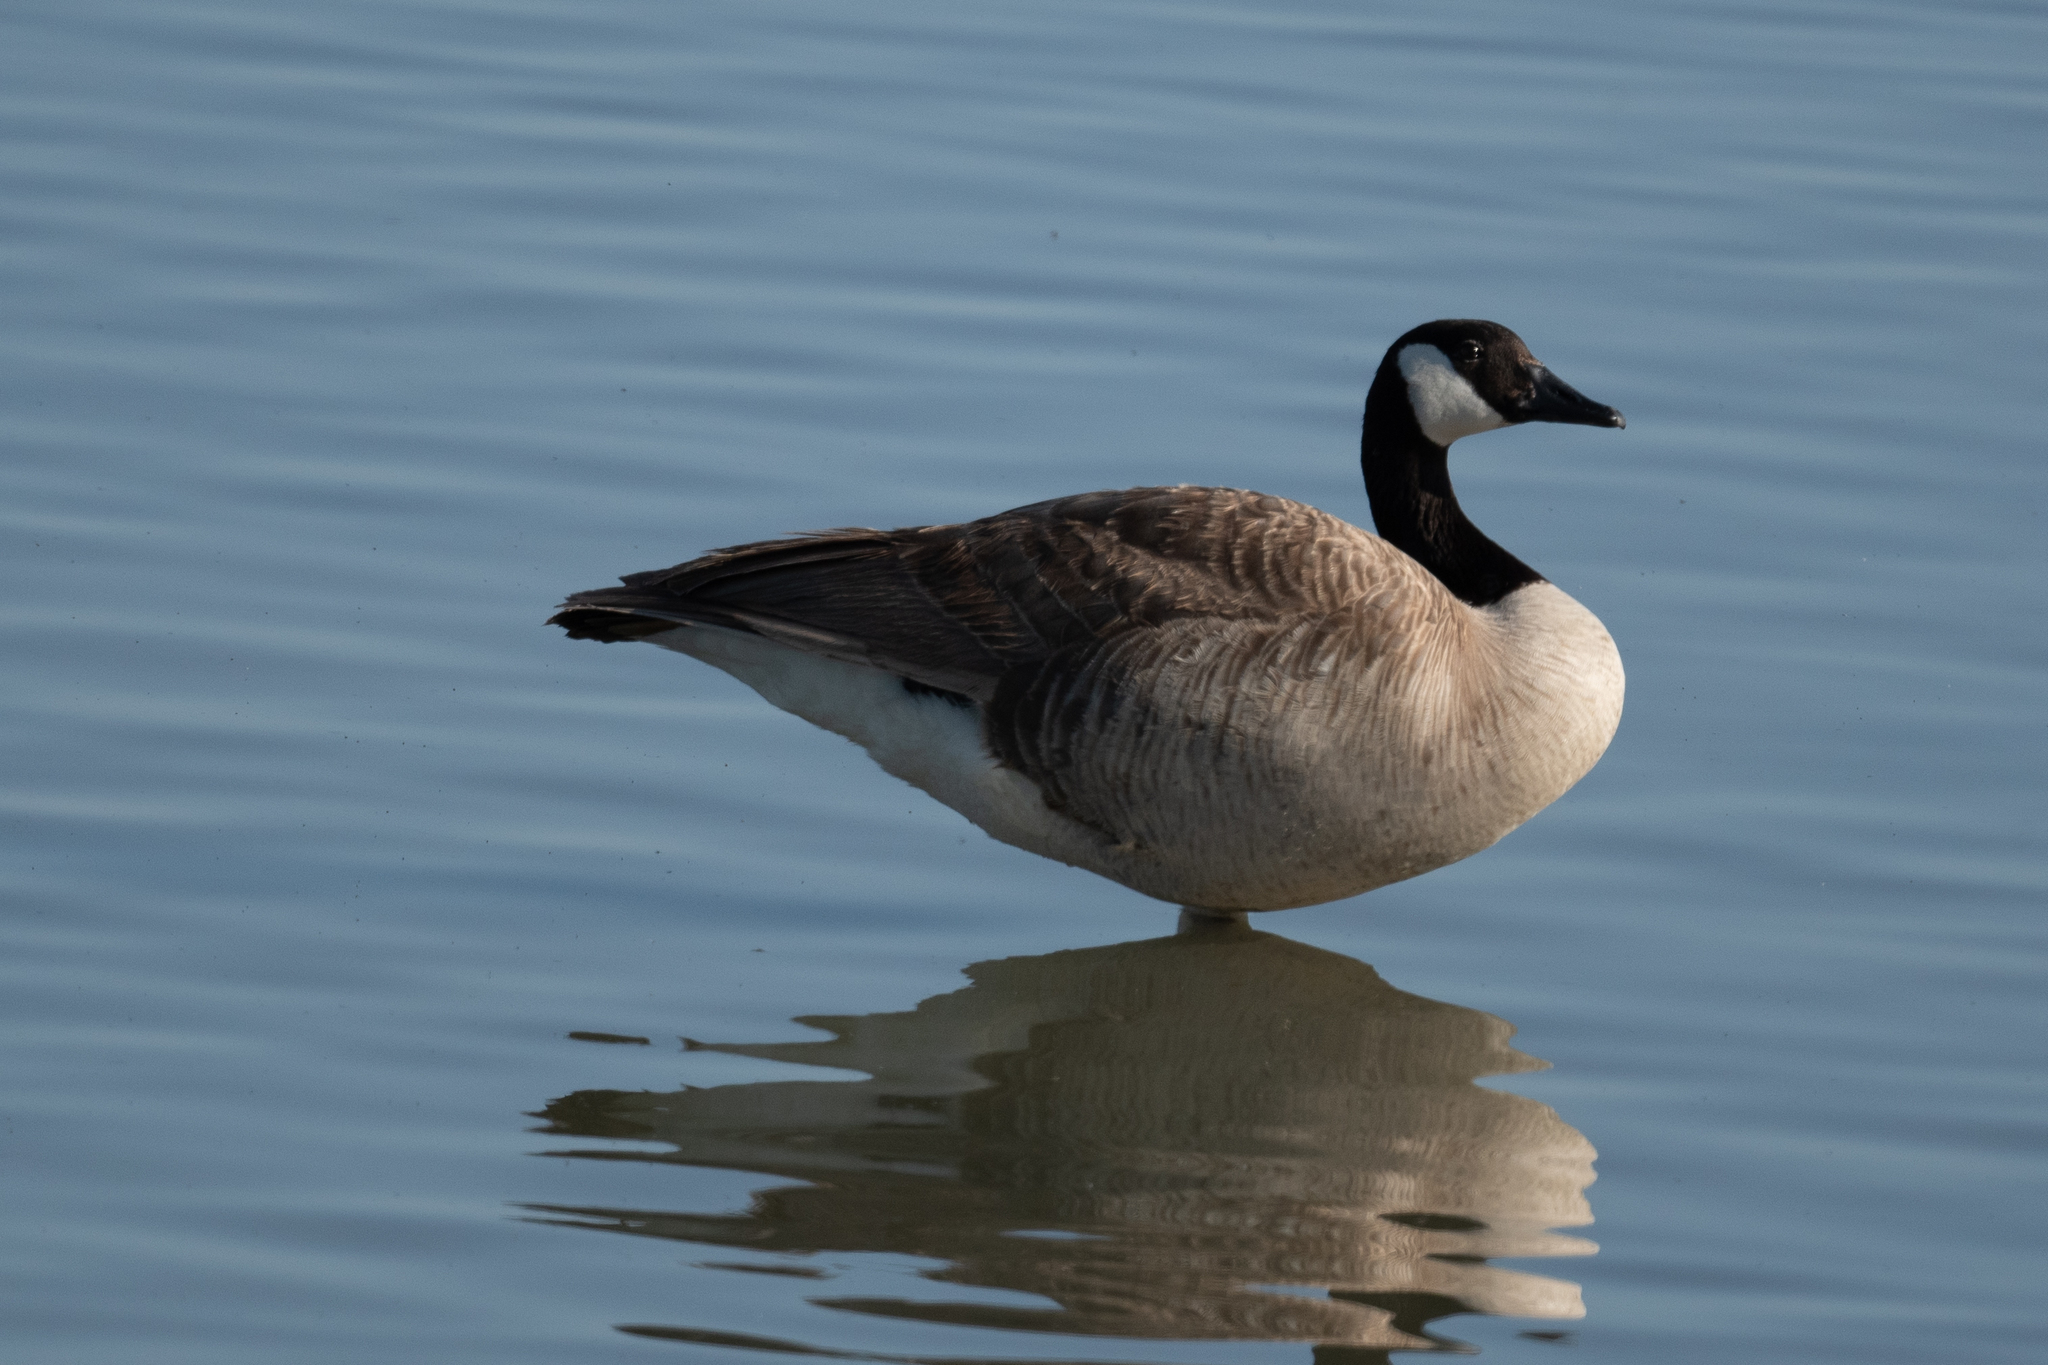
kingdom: Animalia
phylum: Chordata
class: Aves
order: Anseriformes
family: Anatidae
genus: Branta
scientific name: Branta canadensis
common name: Canada goose
